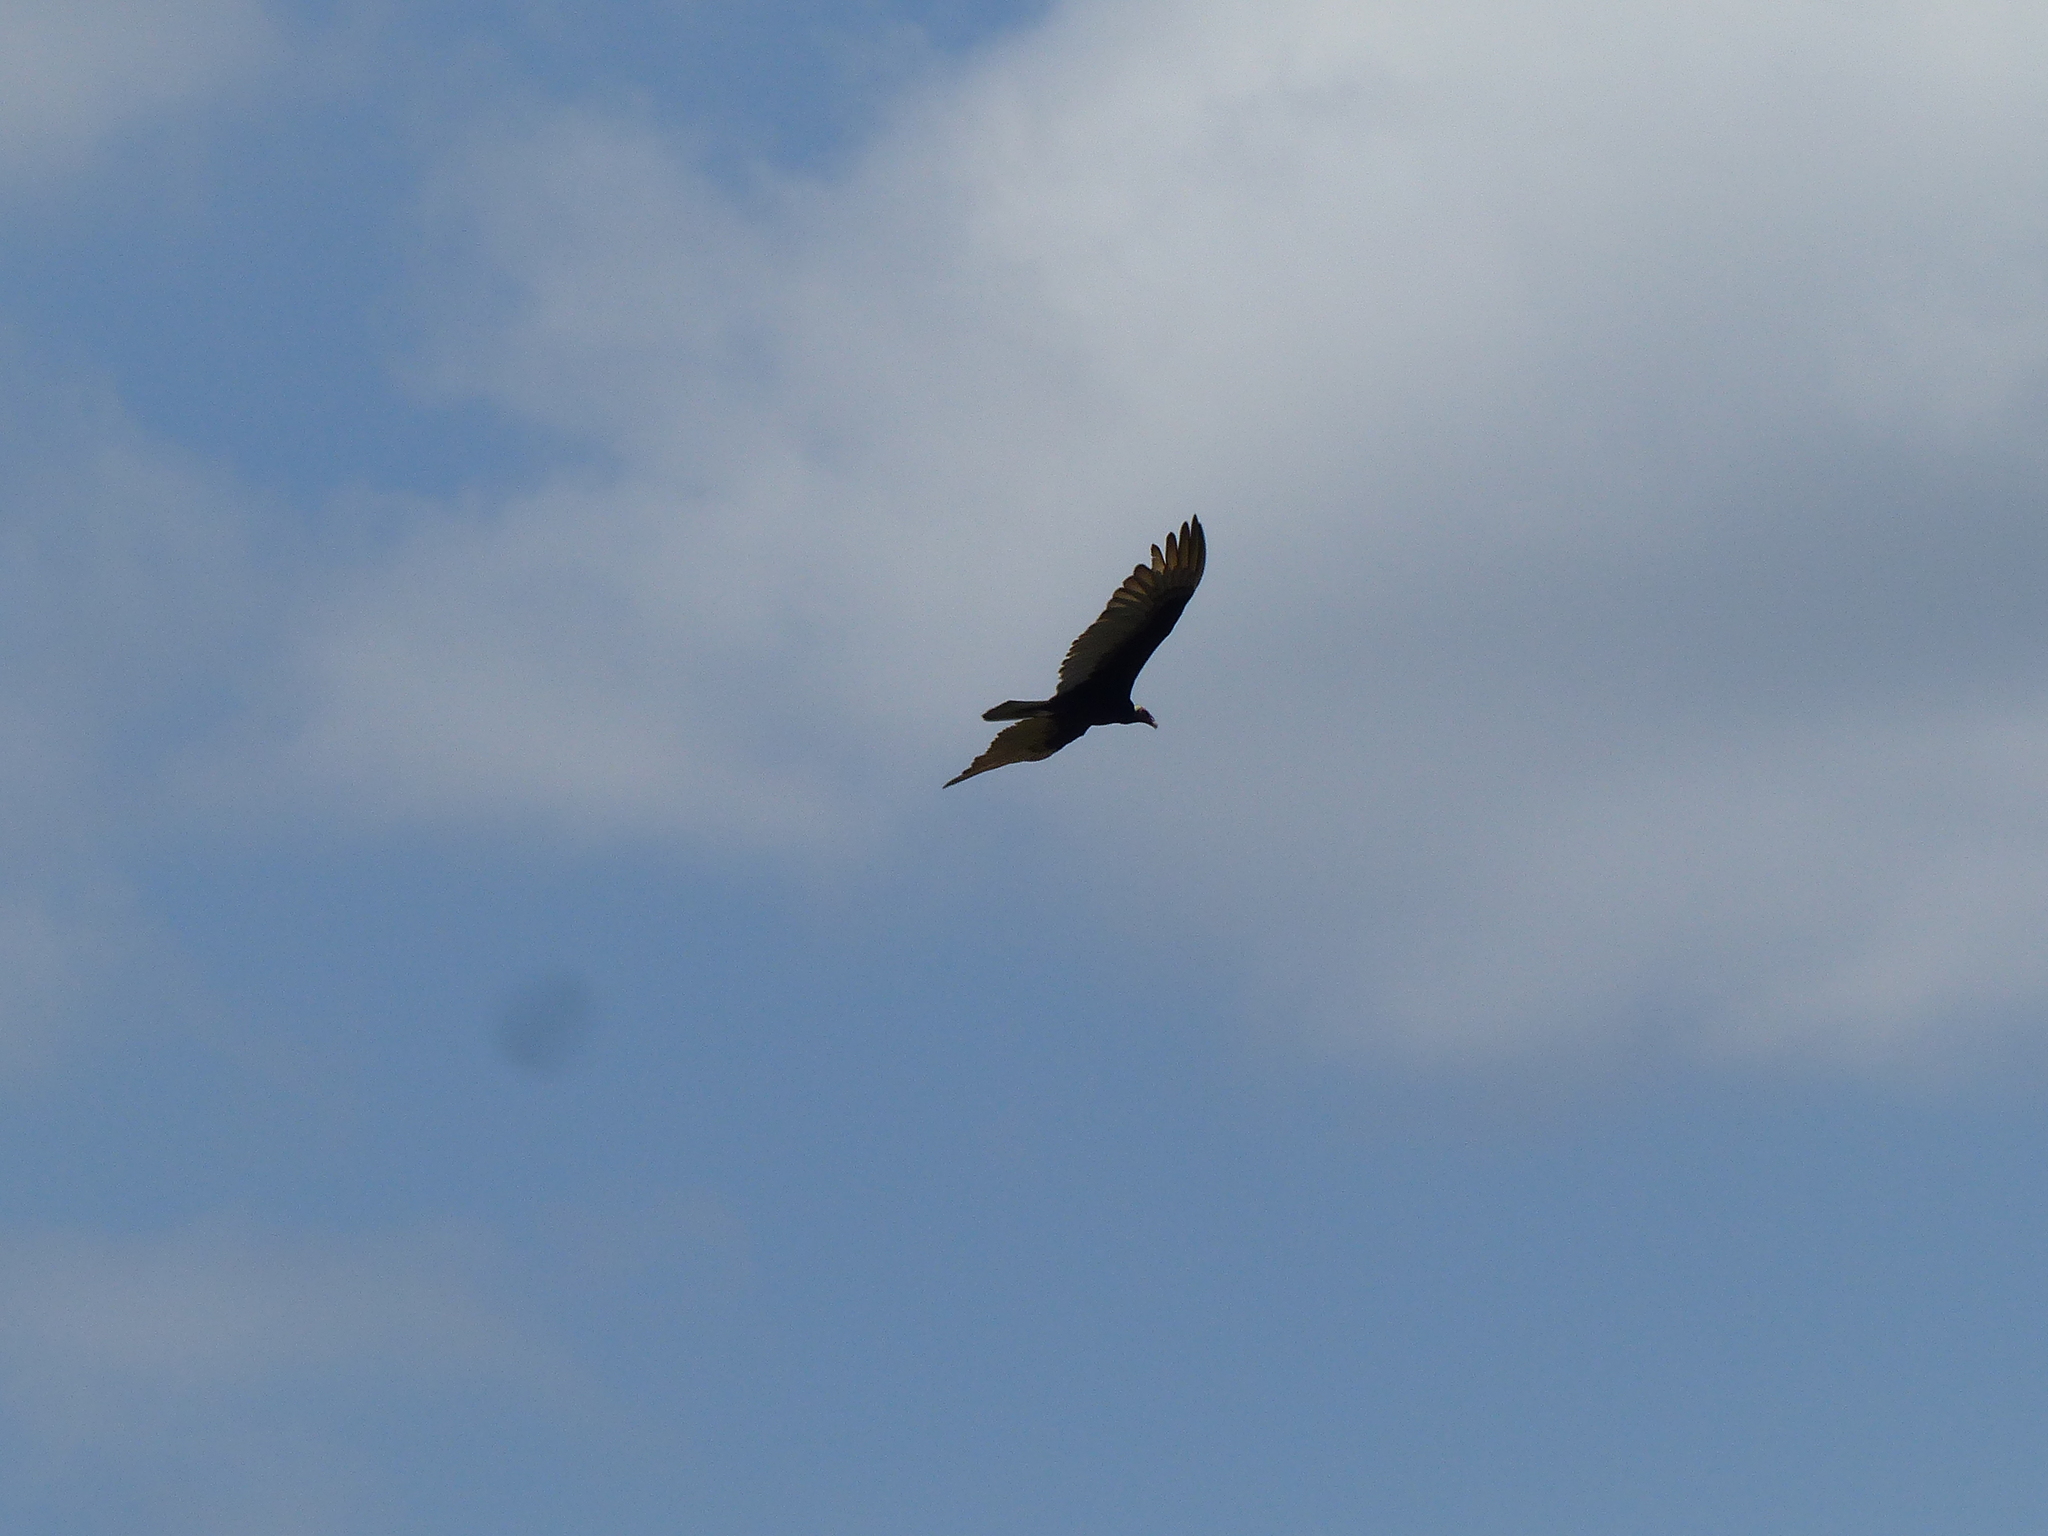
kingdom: Animalia
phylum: Chordata
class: Aves
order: Accipitriformes
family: Cathartidae
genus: Cathartes
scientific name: Cathartes aura
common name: Turkey vulture
